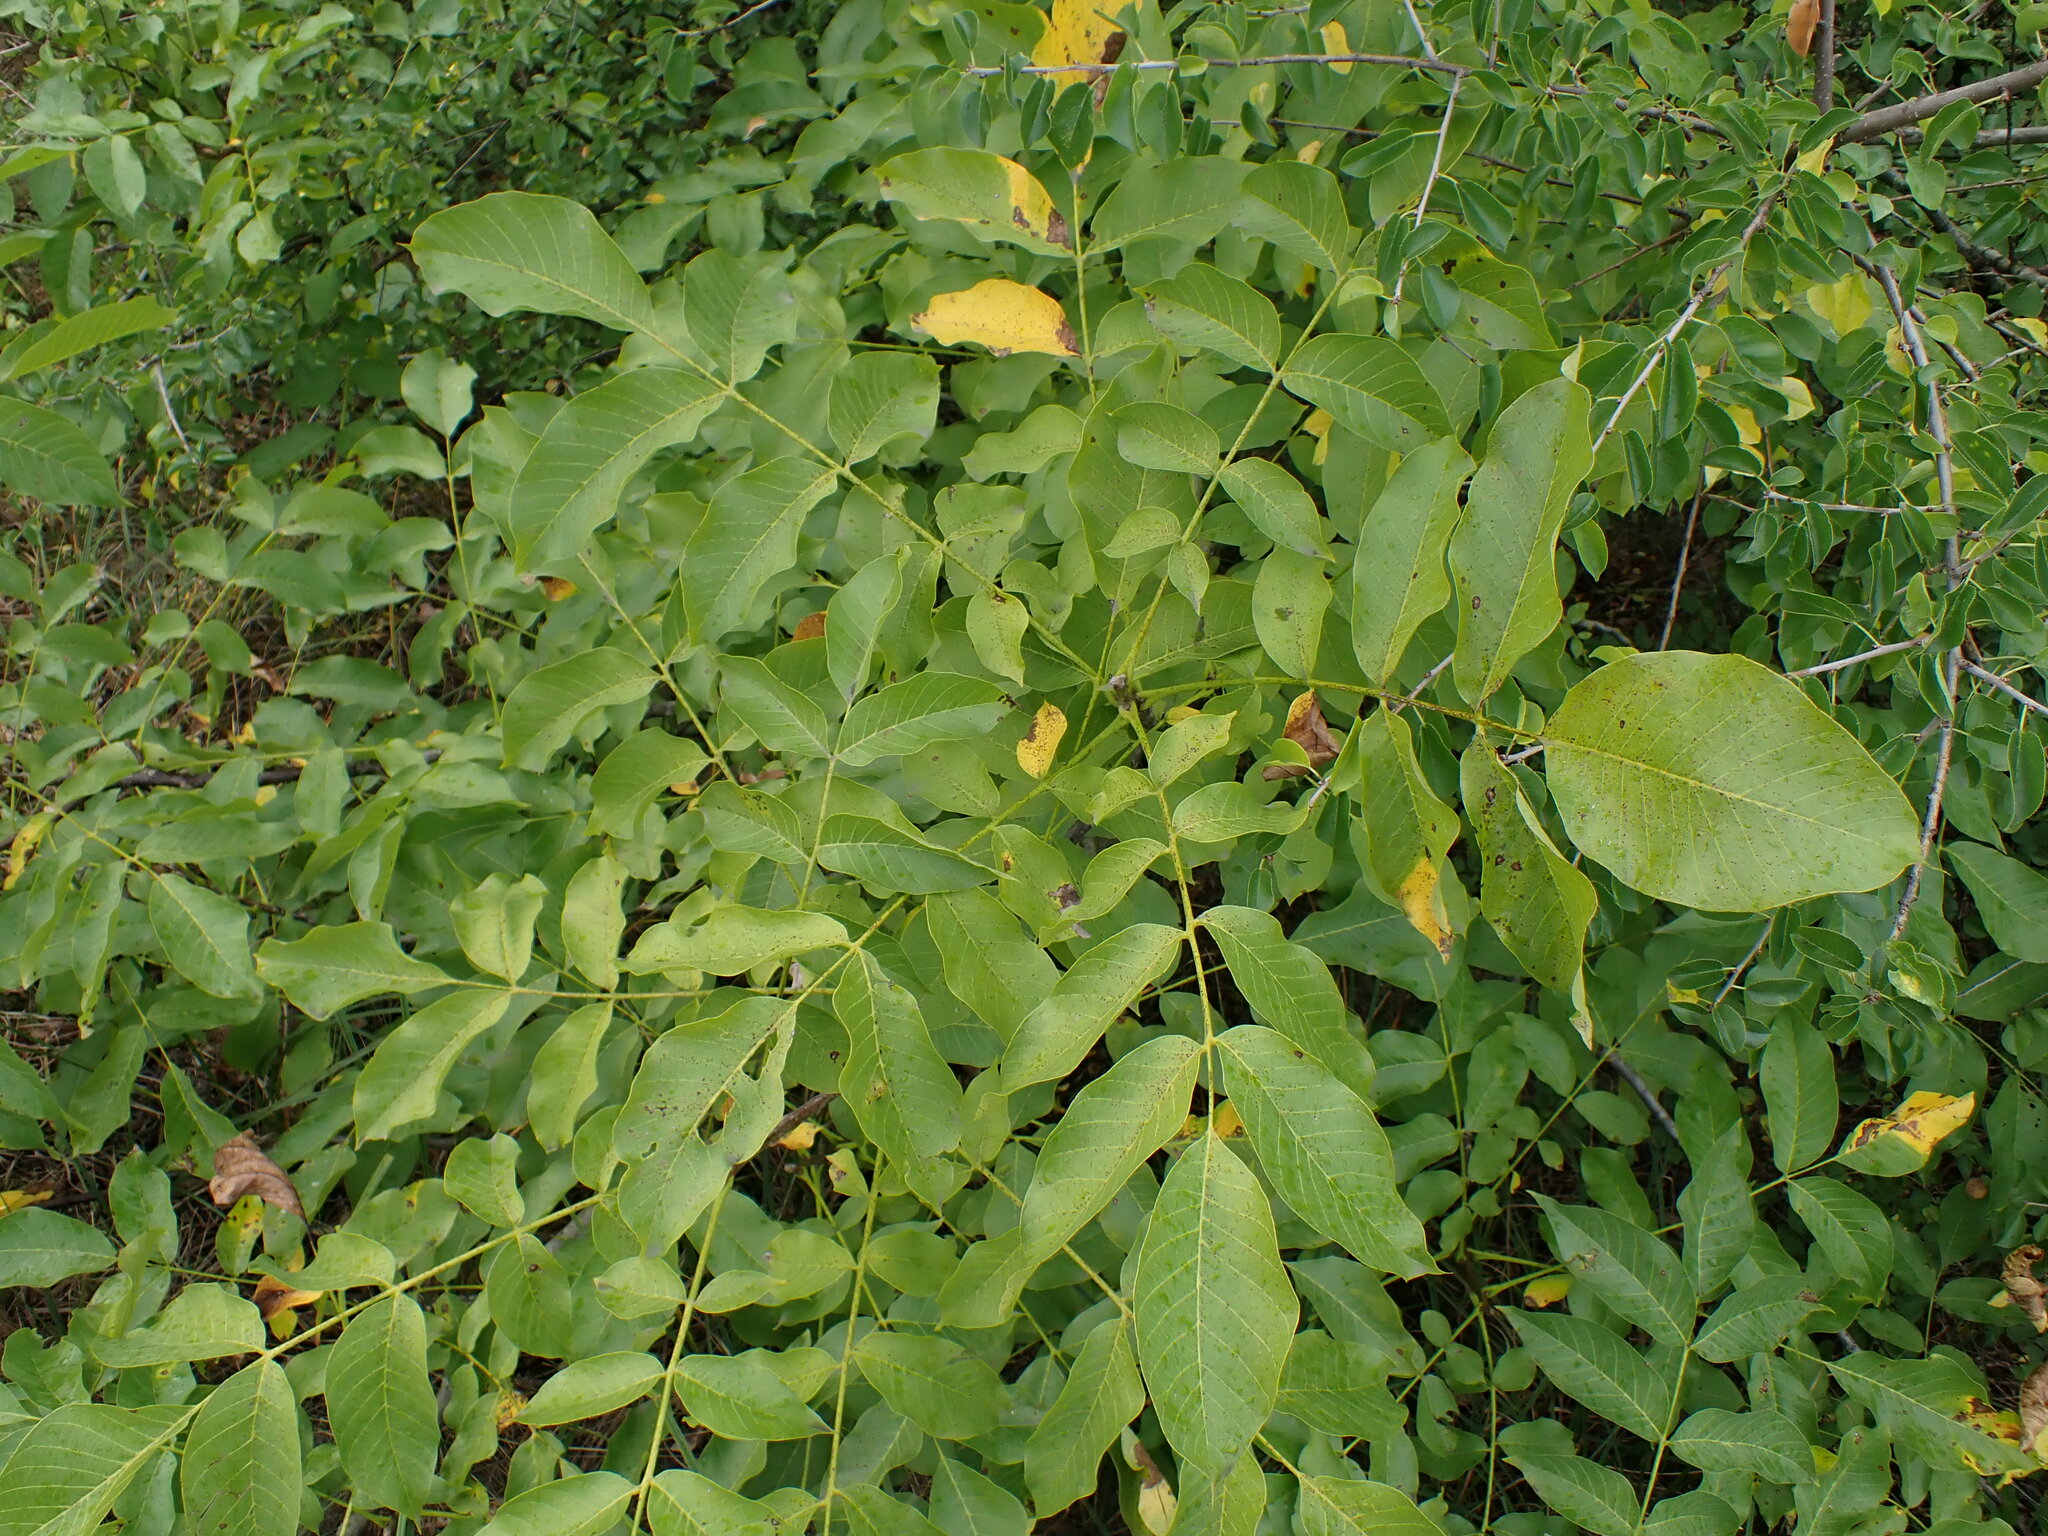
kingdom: Plantae
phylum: Tracheophyta
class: Magnoliopsida
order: Fagales
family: Juglandaceae
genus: Juglans
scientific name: Juglans regia
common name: Walnut
